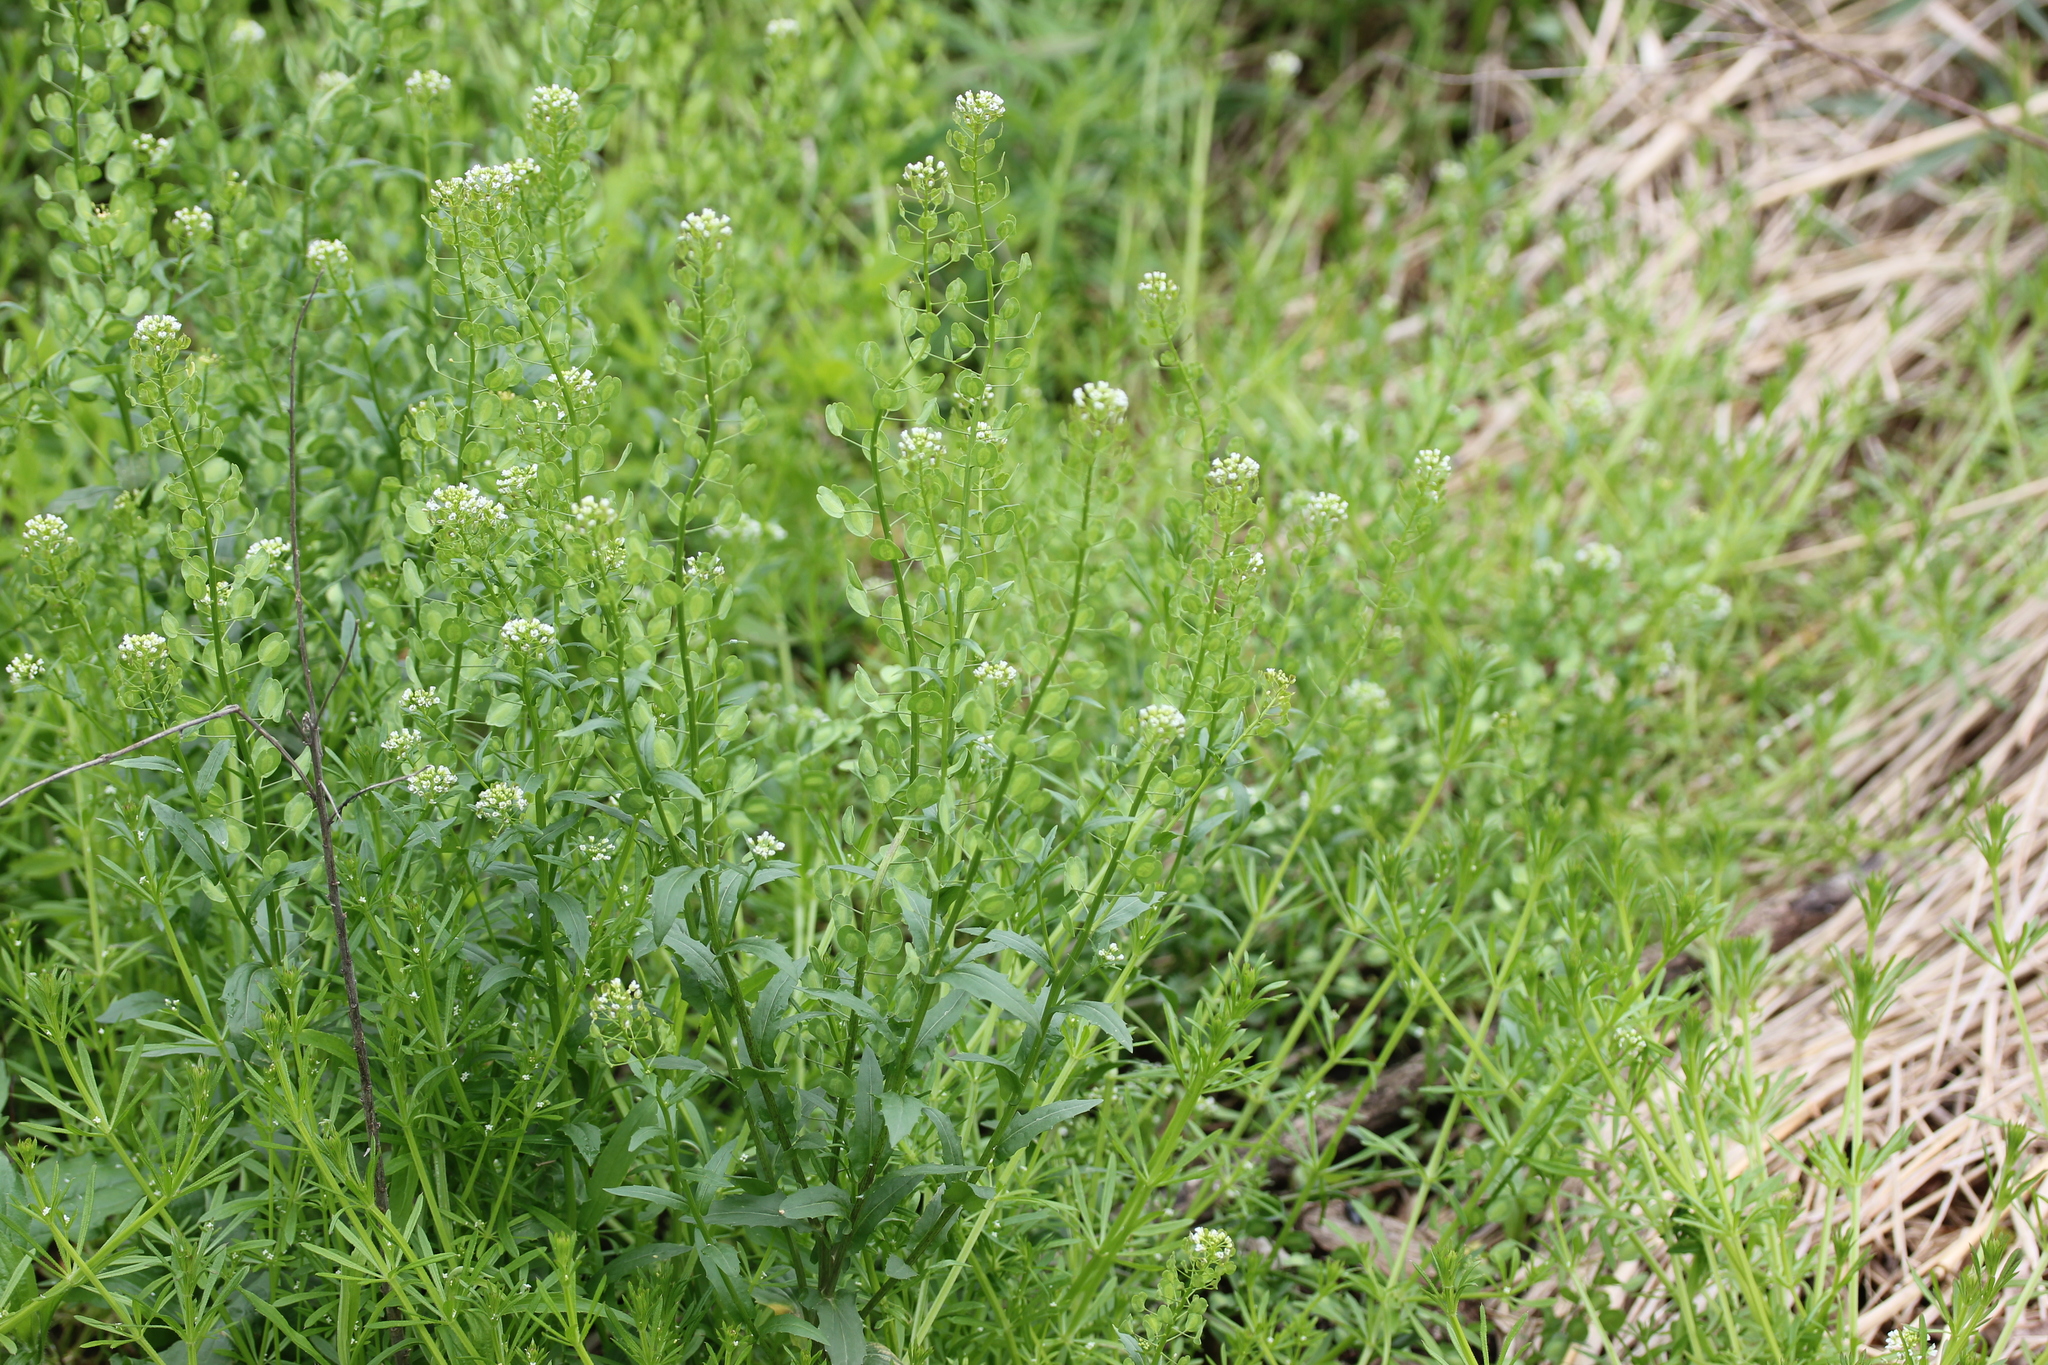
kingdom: Plantae
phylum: Tracheophyta
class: Magnoliopsida
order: Brassicales
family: Brassicaceae
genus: Thlaspi
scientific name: Thlaspi arvense
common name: Field pennycress
